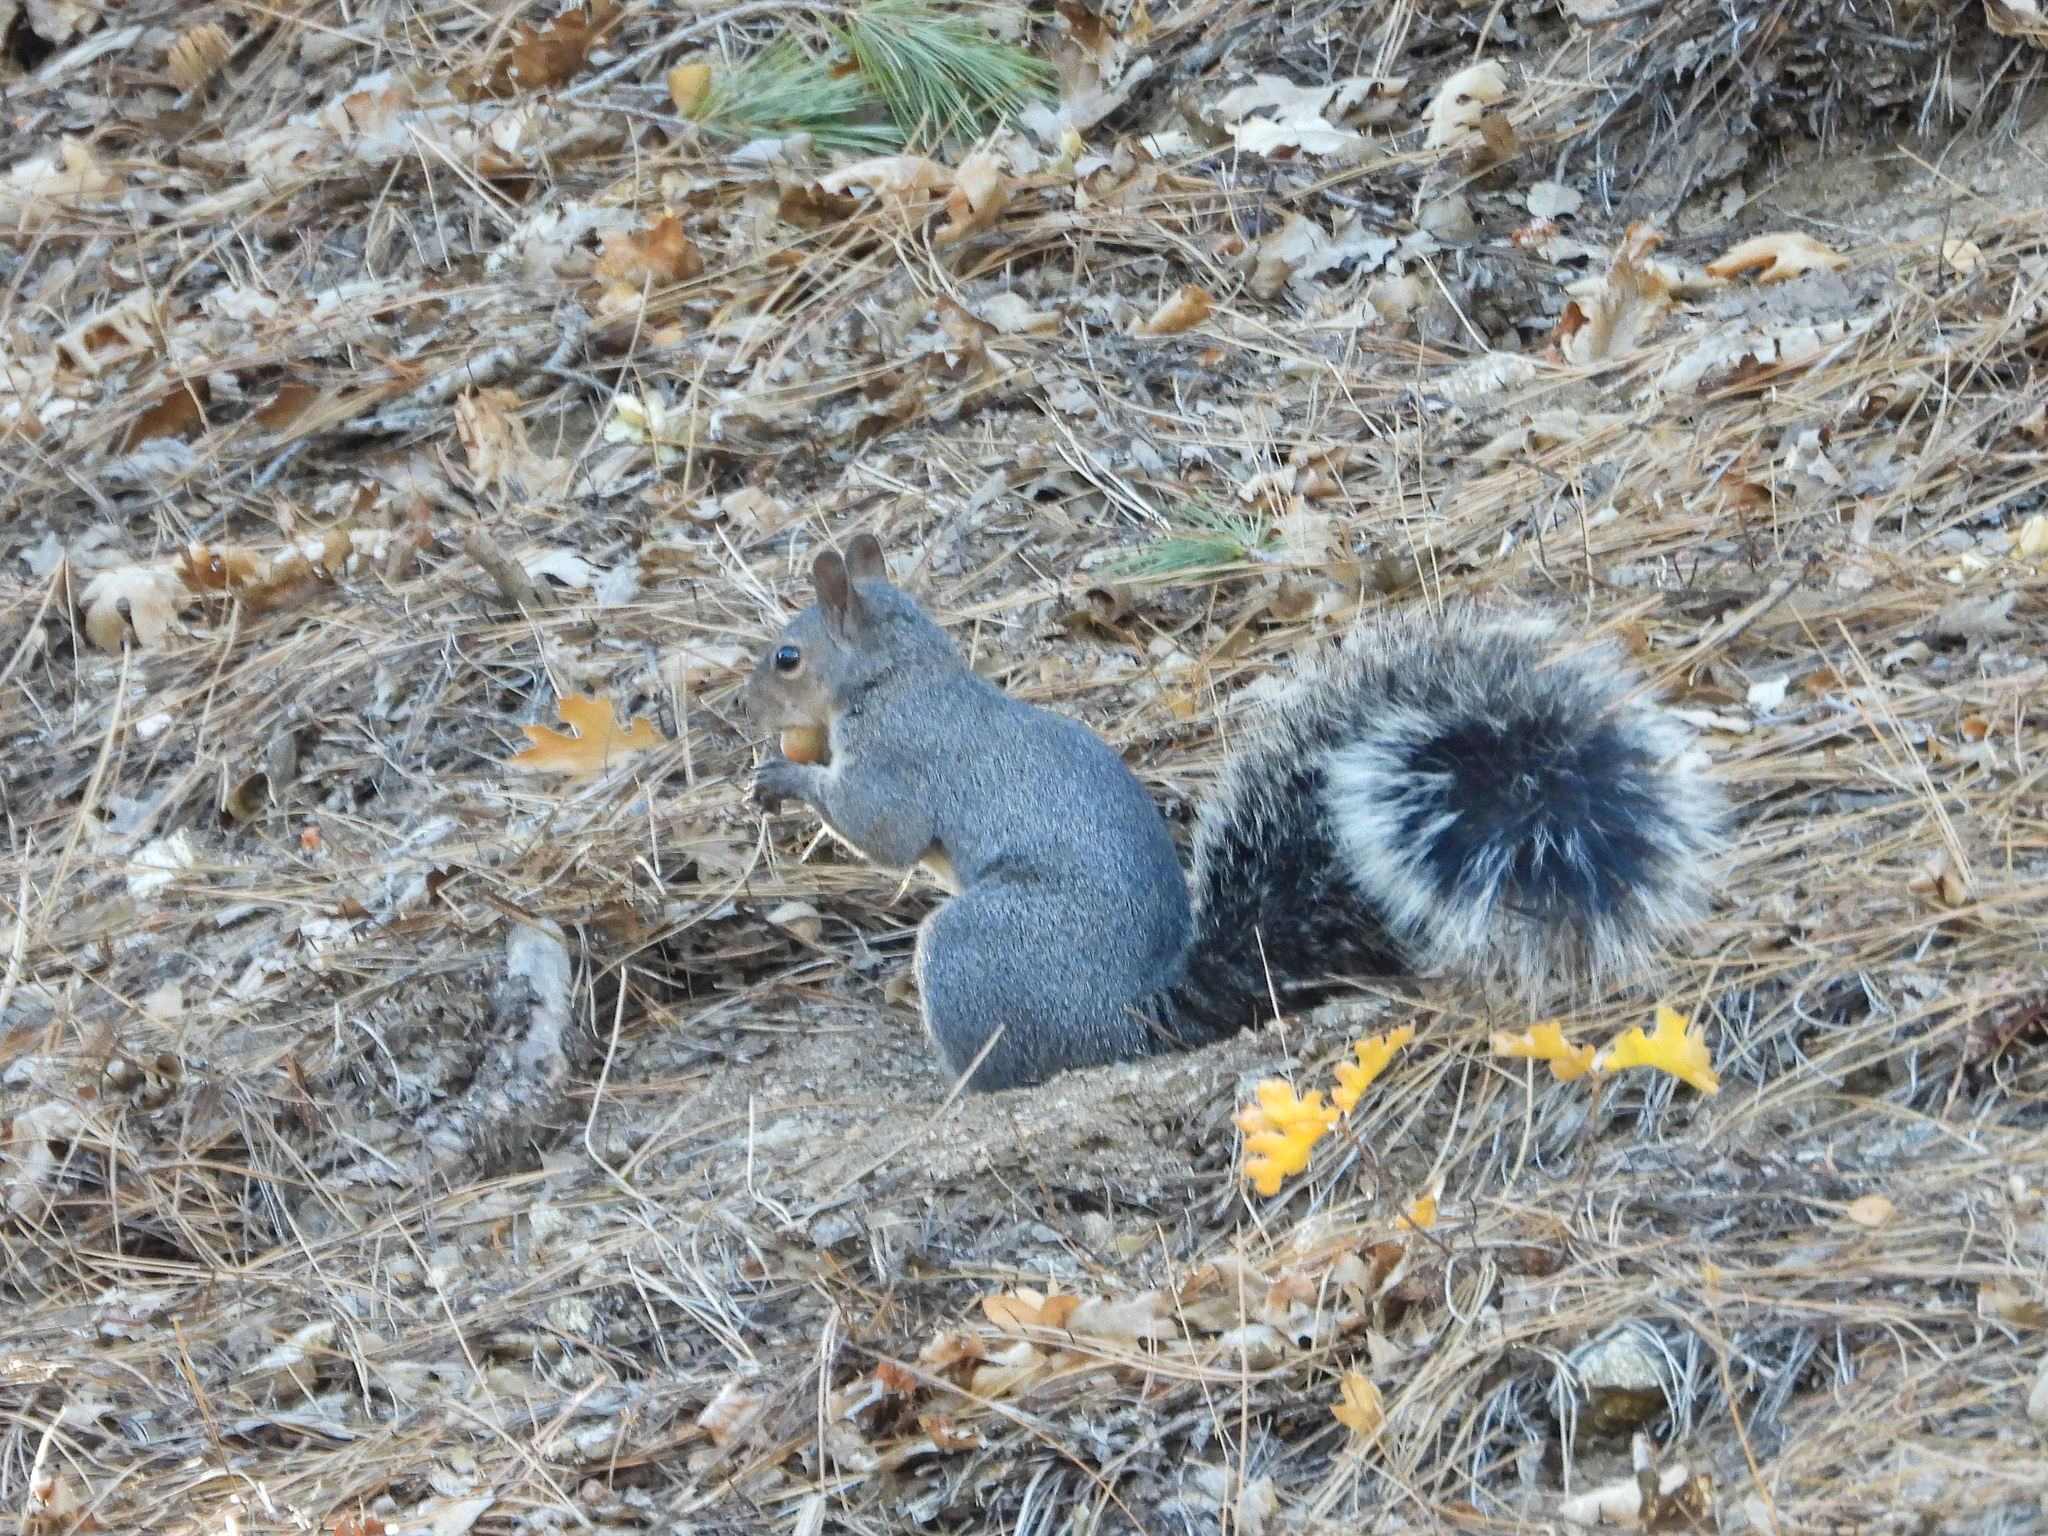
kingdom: Animalia
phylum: Chordata
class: Mammalia
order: Rodentia
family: Sciuridae
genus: Sciurus
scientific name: Sciurus griseus
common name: Western gray squirrel
